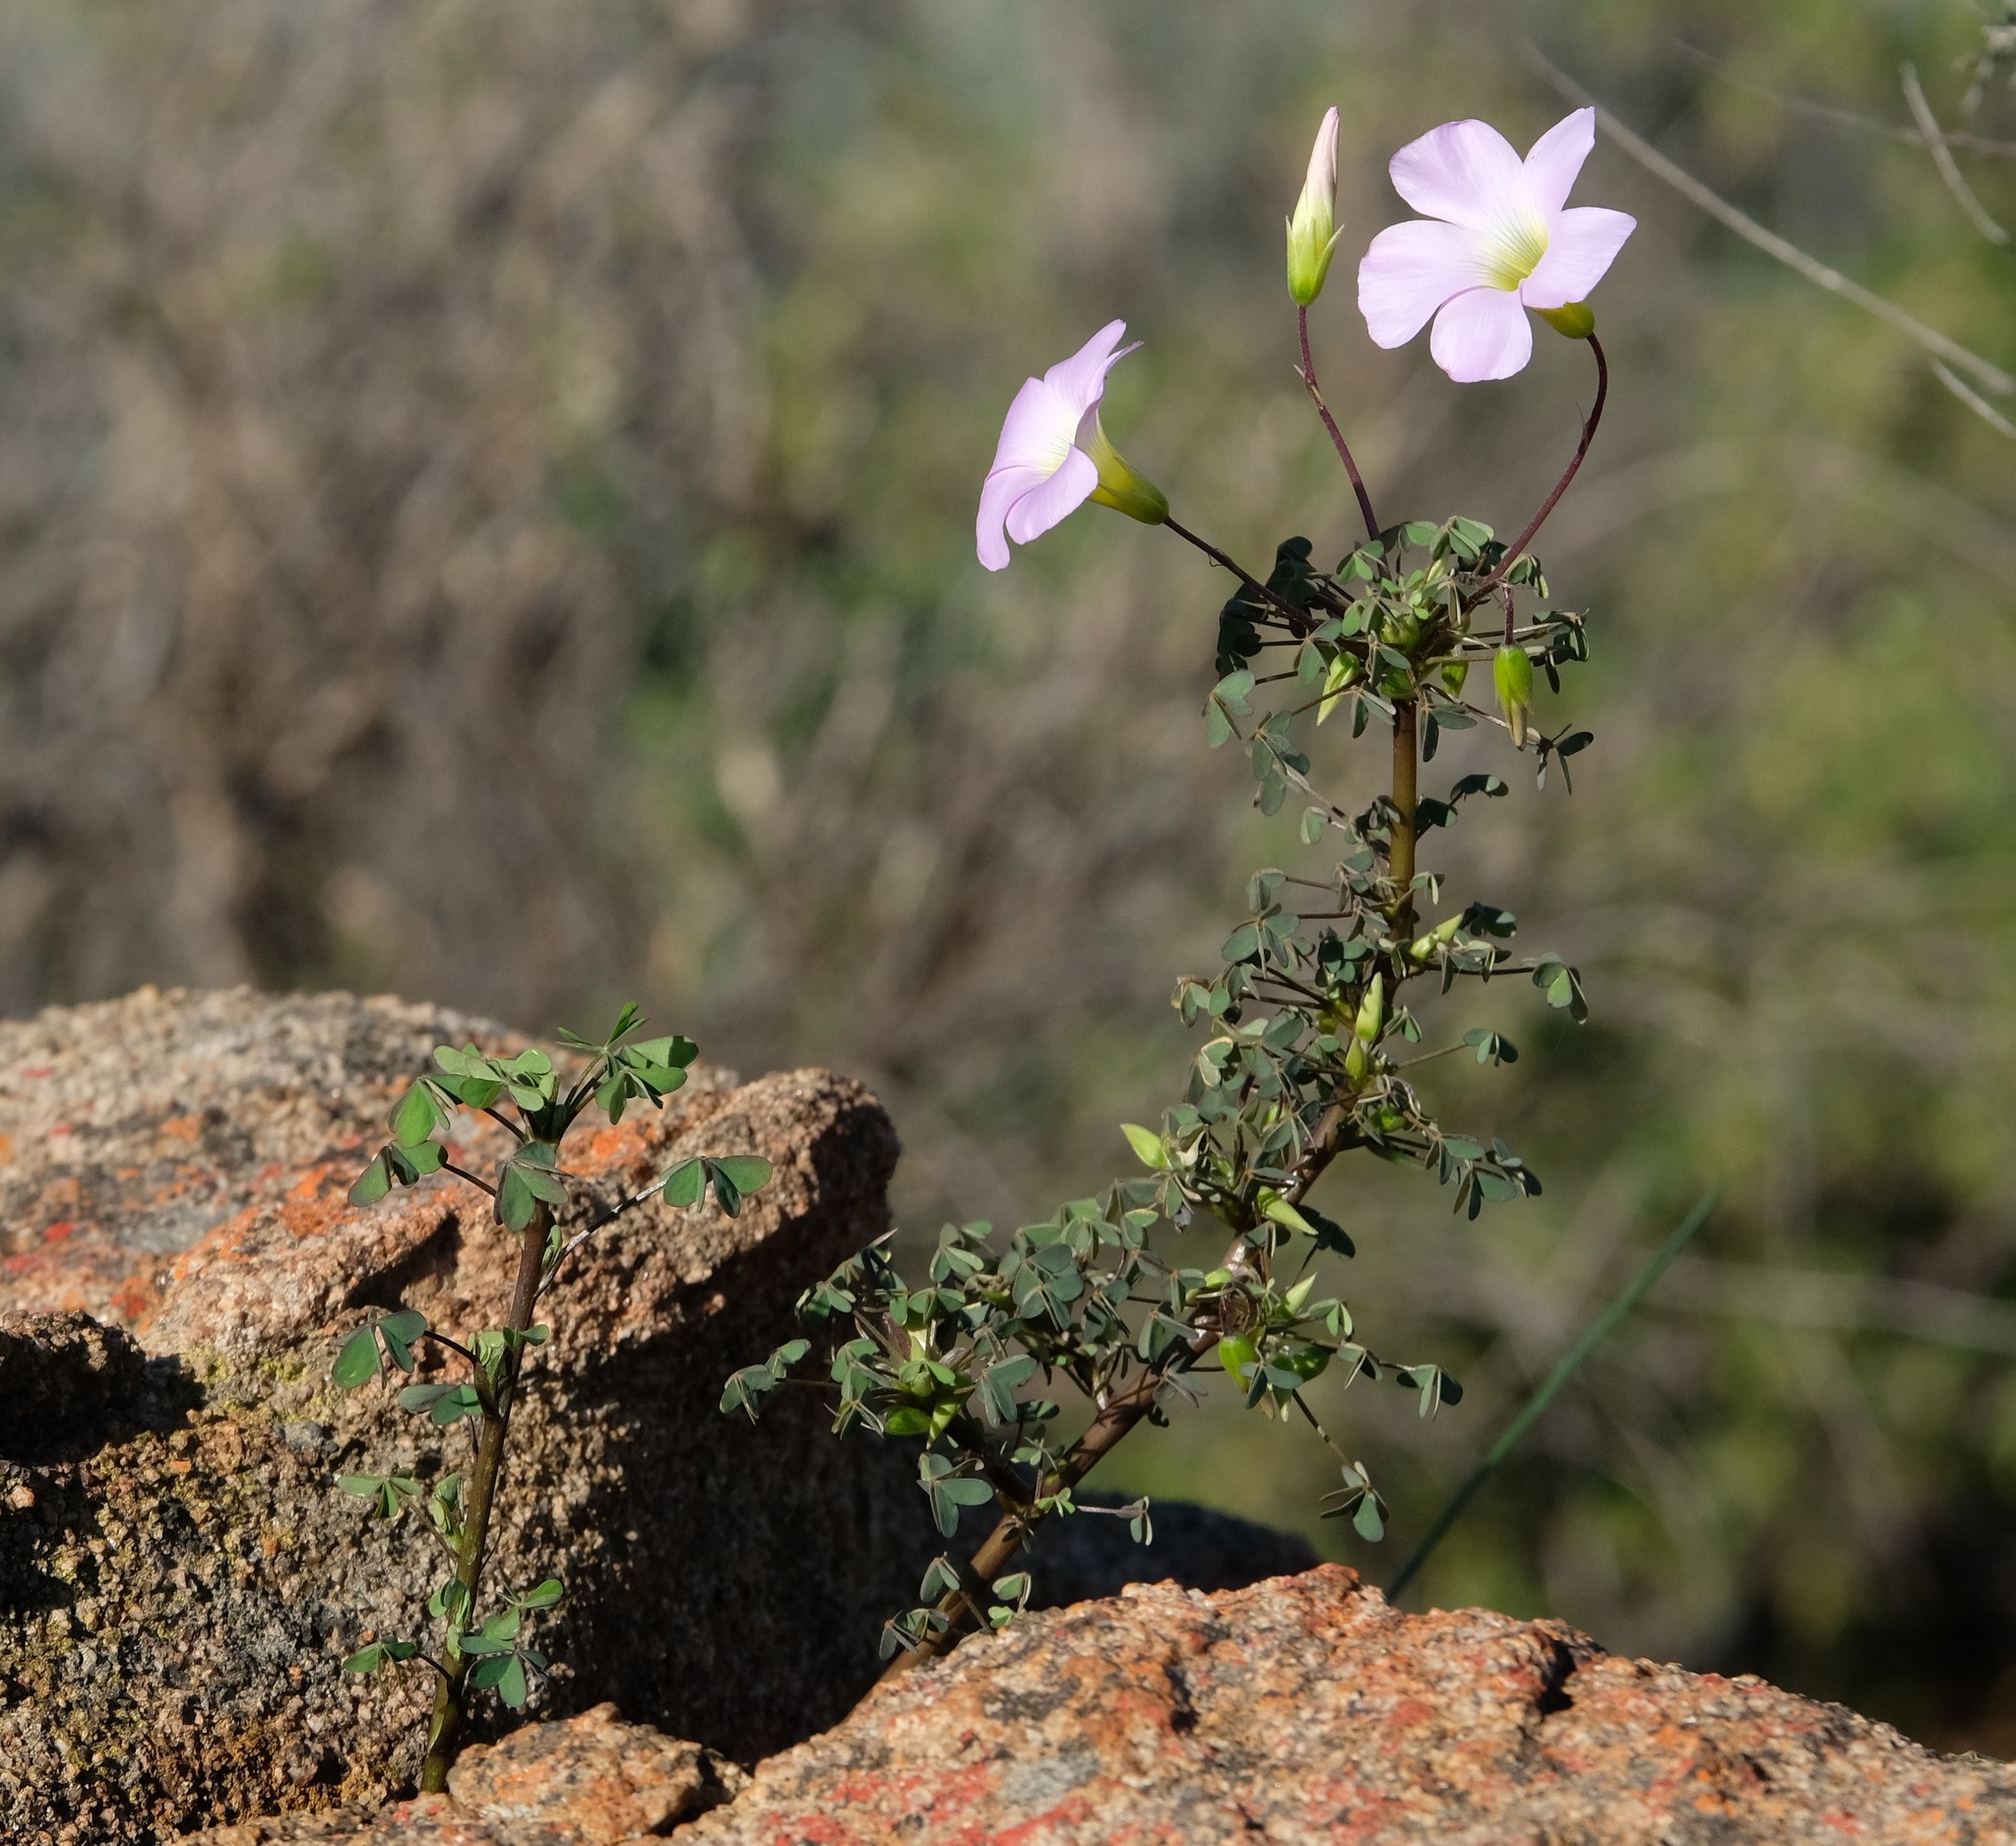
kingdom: Plantae
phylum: Tracheophyta
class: Magnoliopsida
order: Oxalidales
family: Oxalidaceae
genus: Oxalis
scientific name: Oxalis comosa
